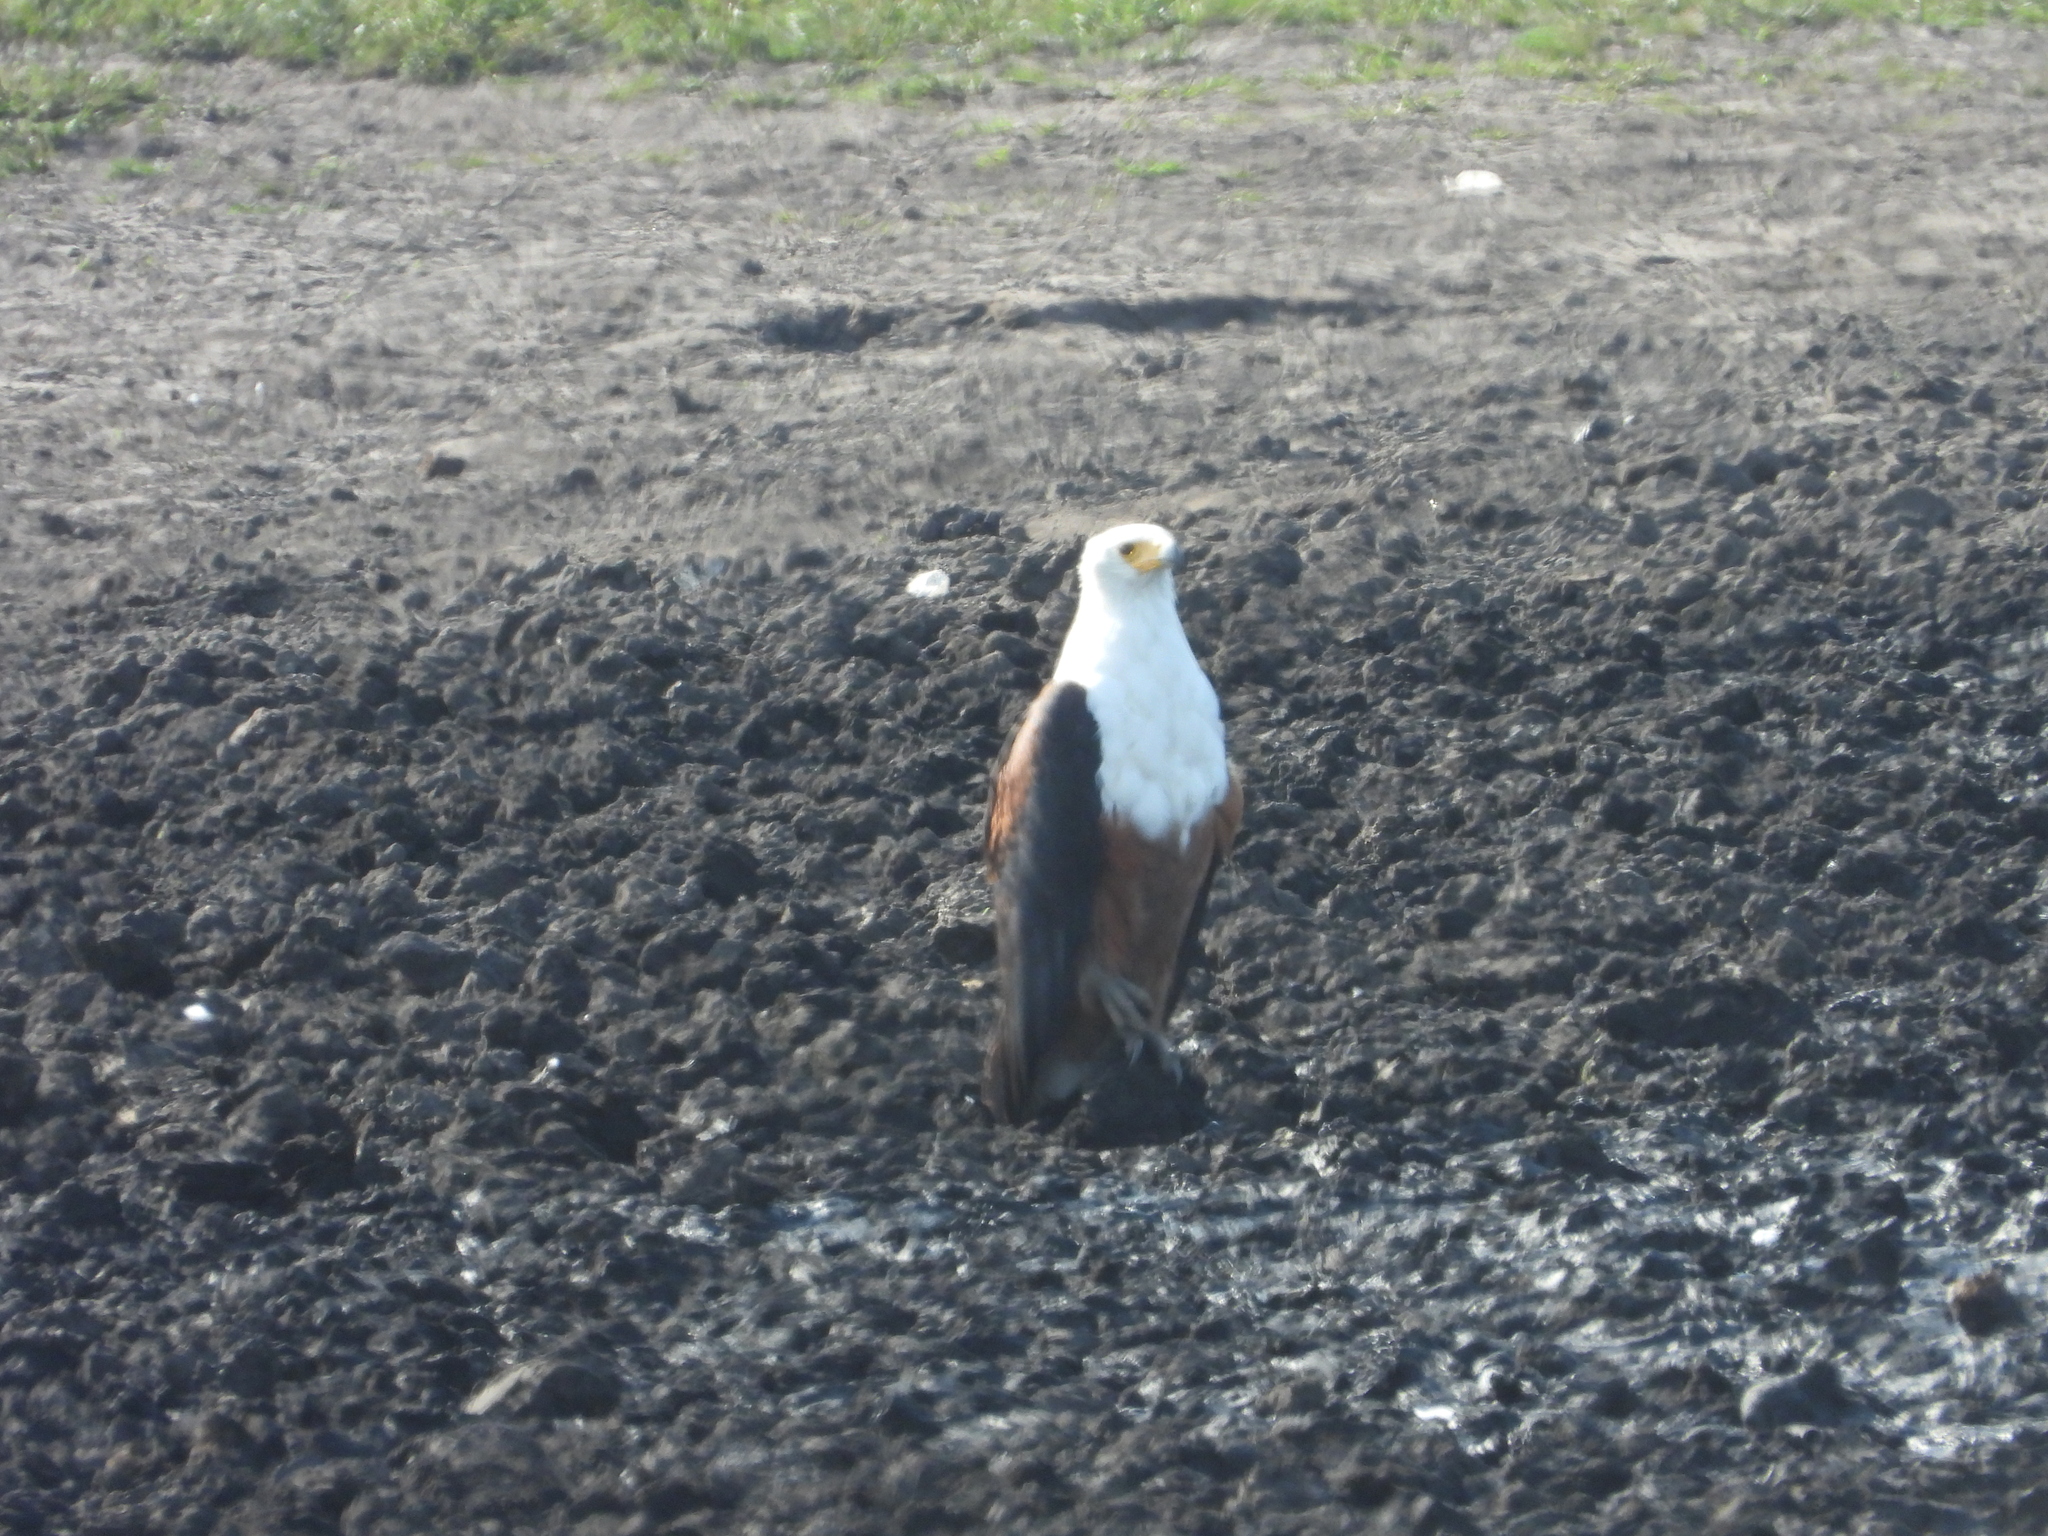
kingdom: Animalia
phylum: Chordata
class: Aves
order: Accipitriformes
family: Accipitridae
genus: Haliaeetus
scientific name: Haliaeetus vocifer
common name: African fish eagle
